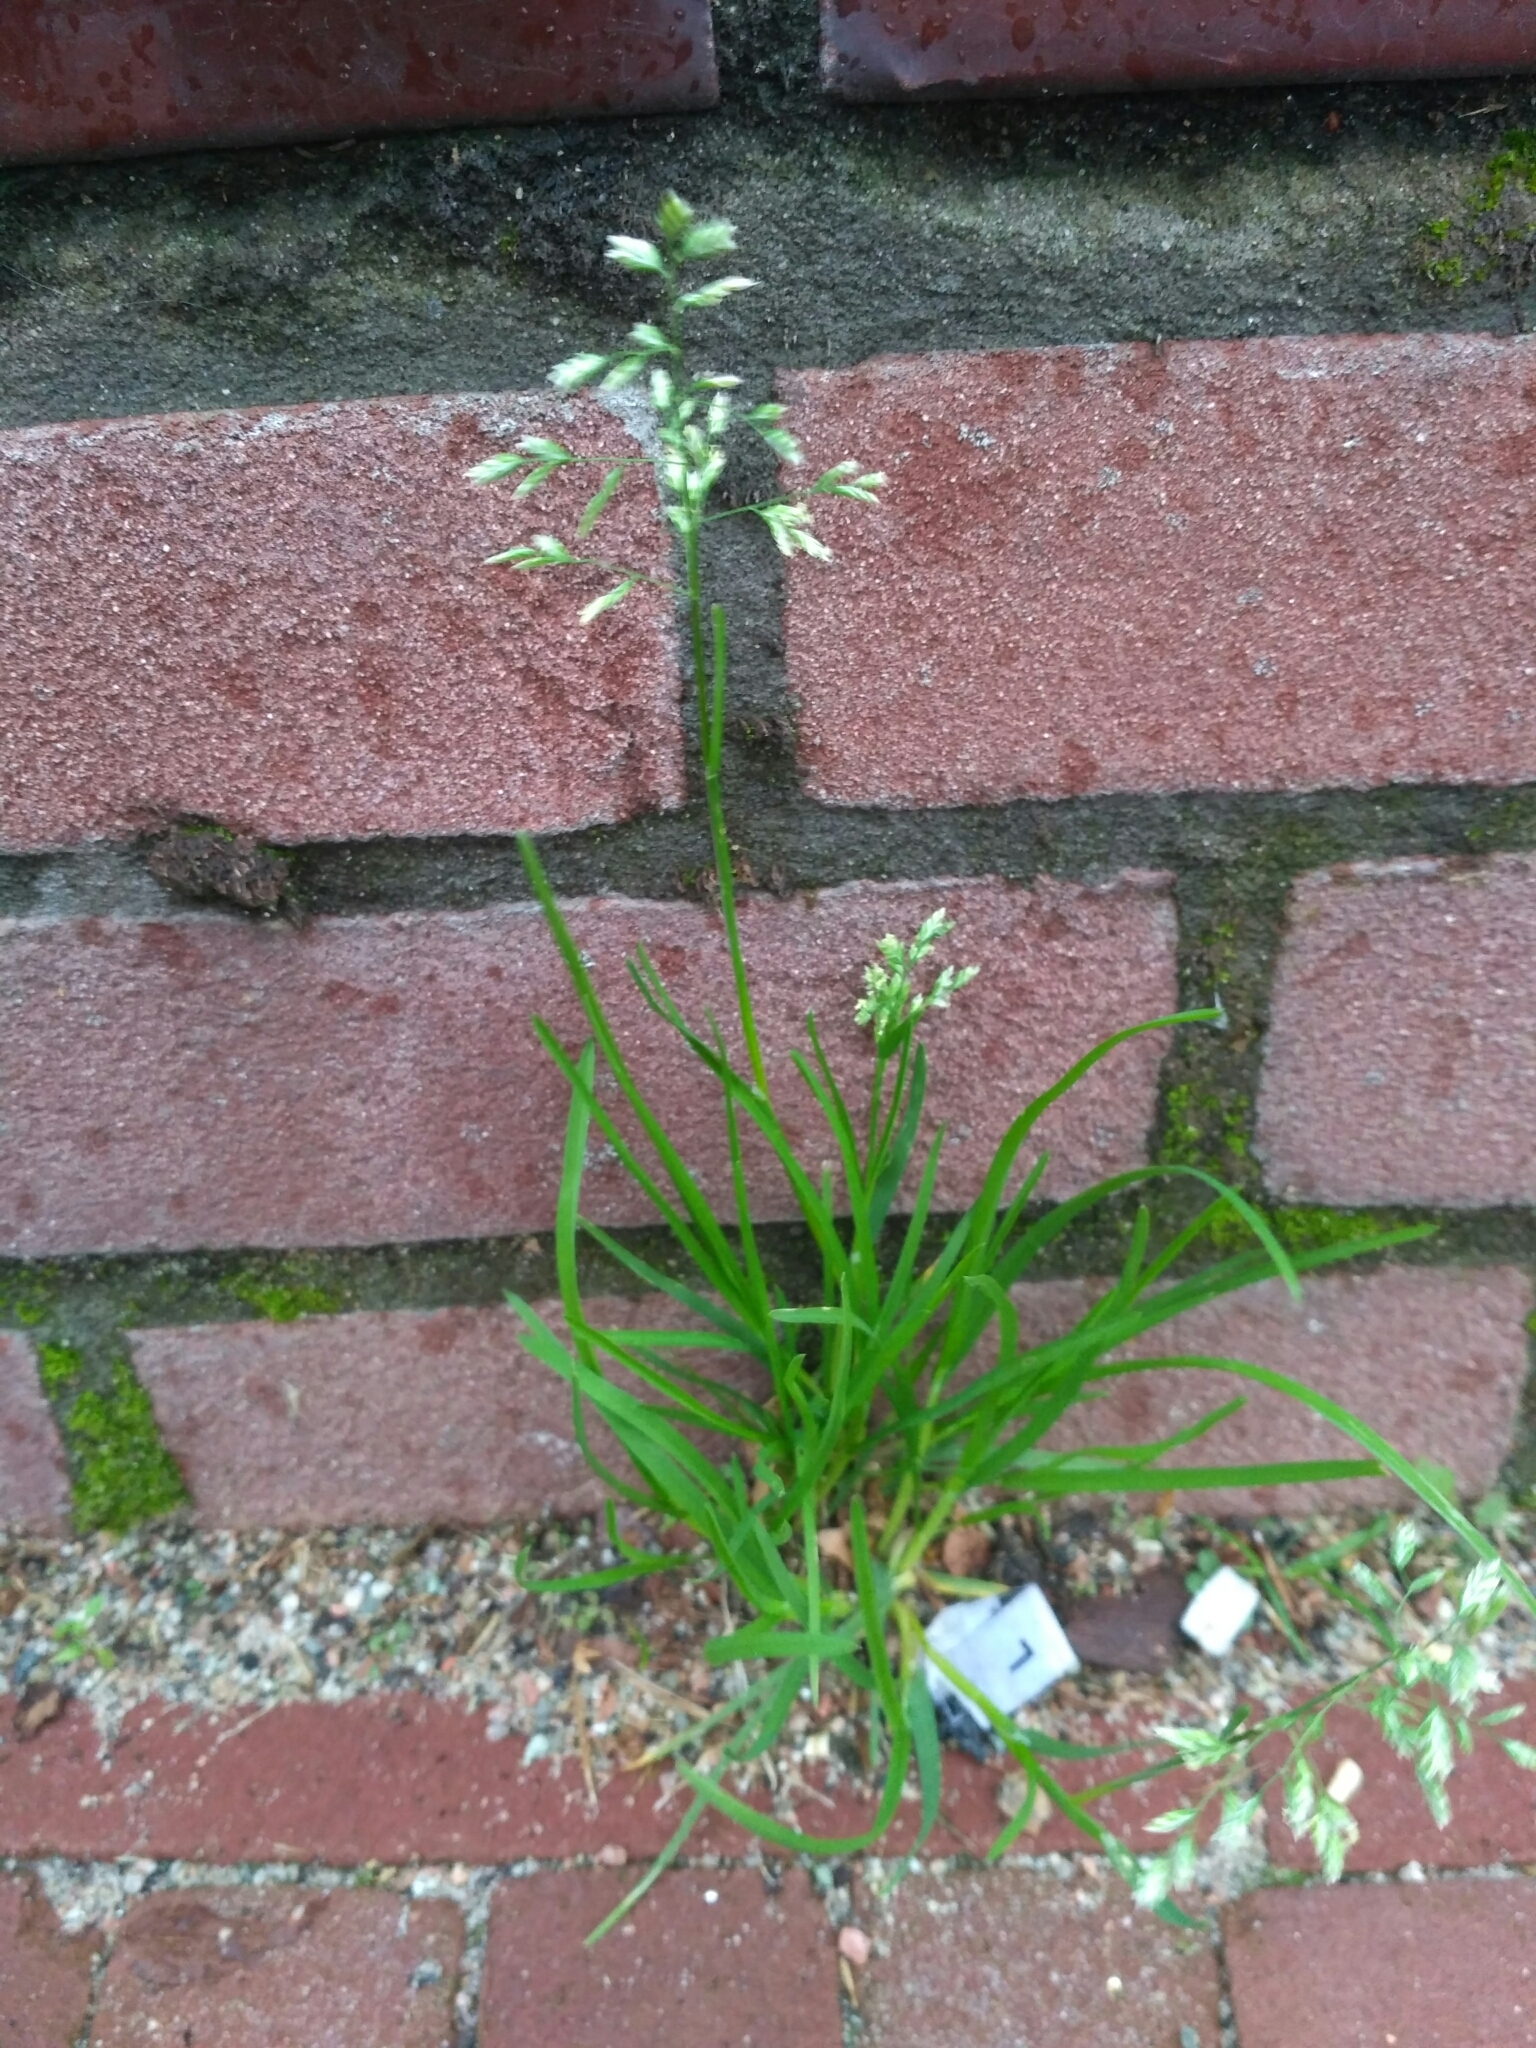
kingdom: Plantae
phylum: Tracheophyta
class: Liliopsida
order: Poales
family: Poaceae
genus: Poa
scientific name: Poa annua
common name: Annual bluegrass
